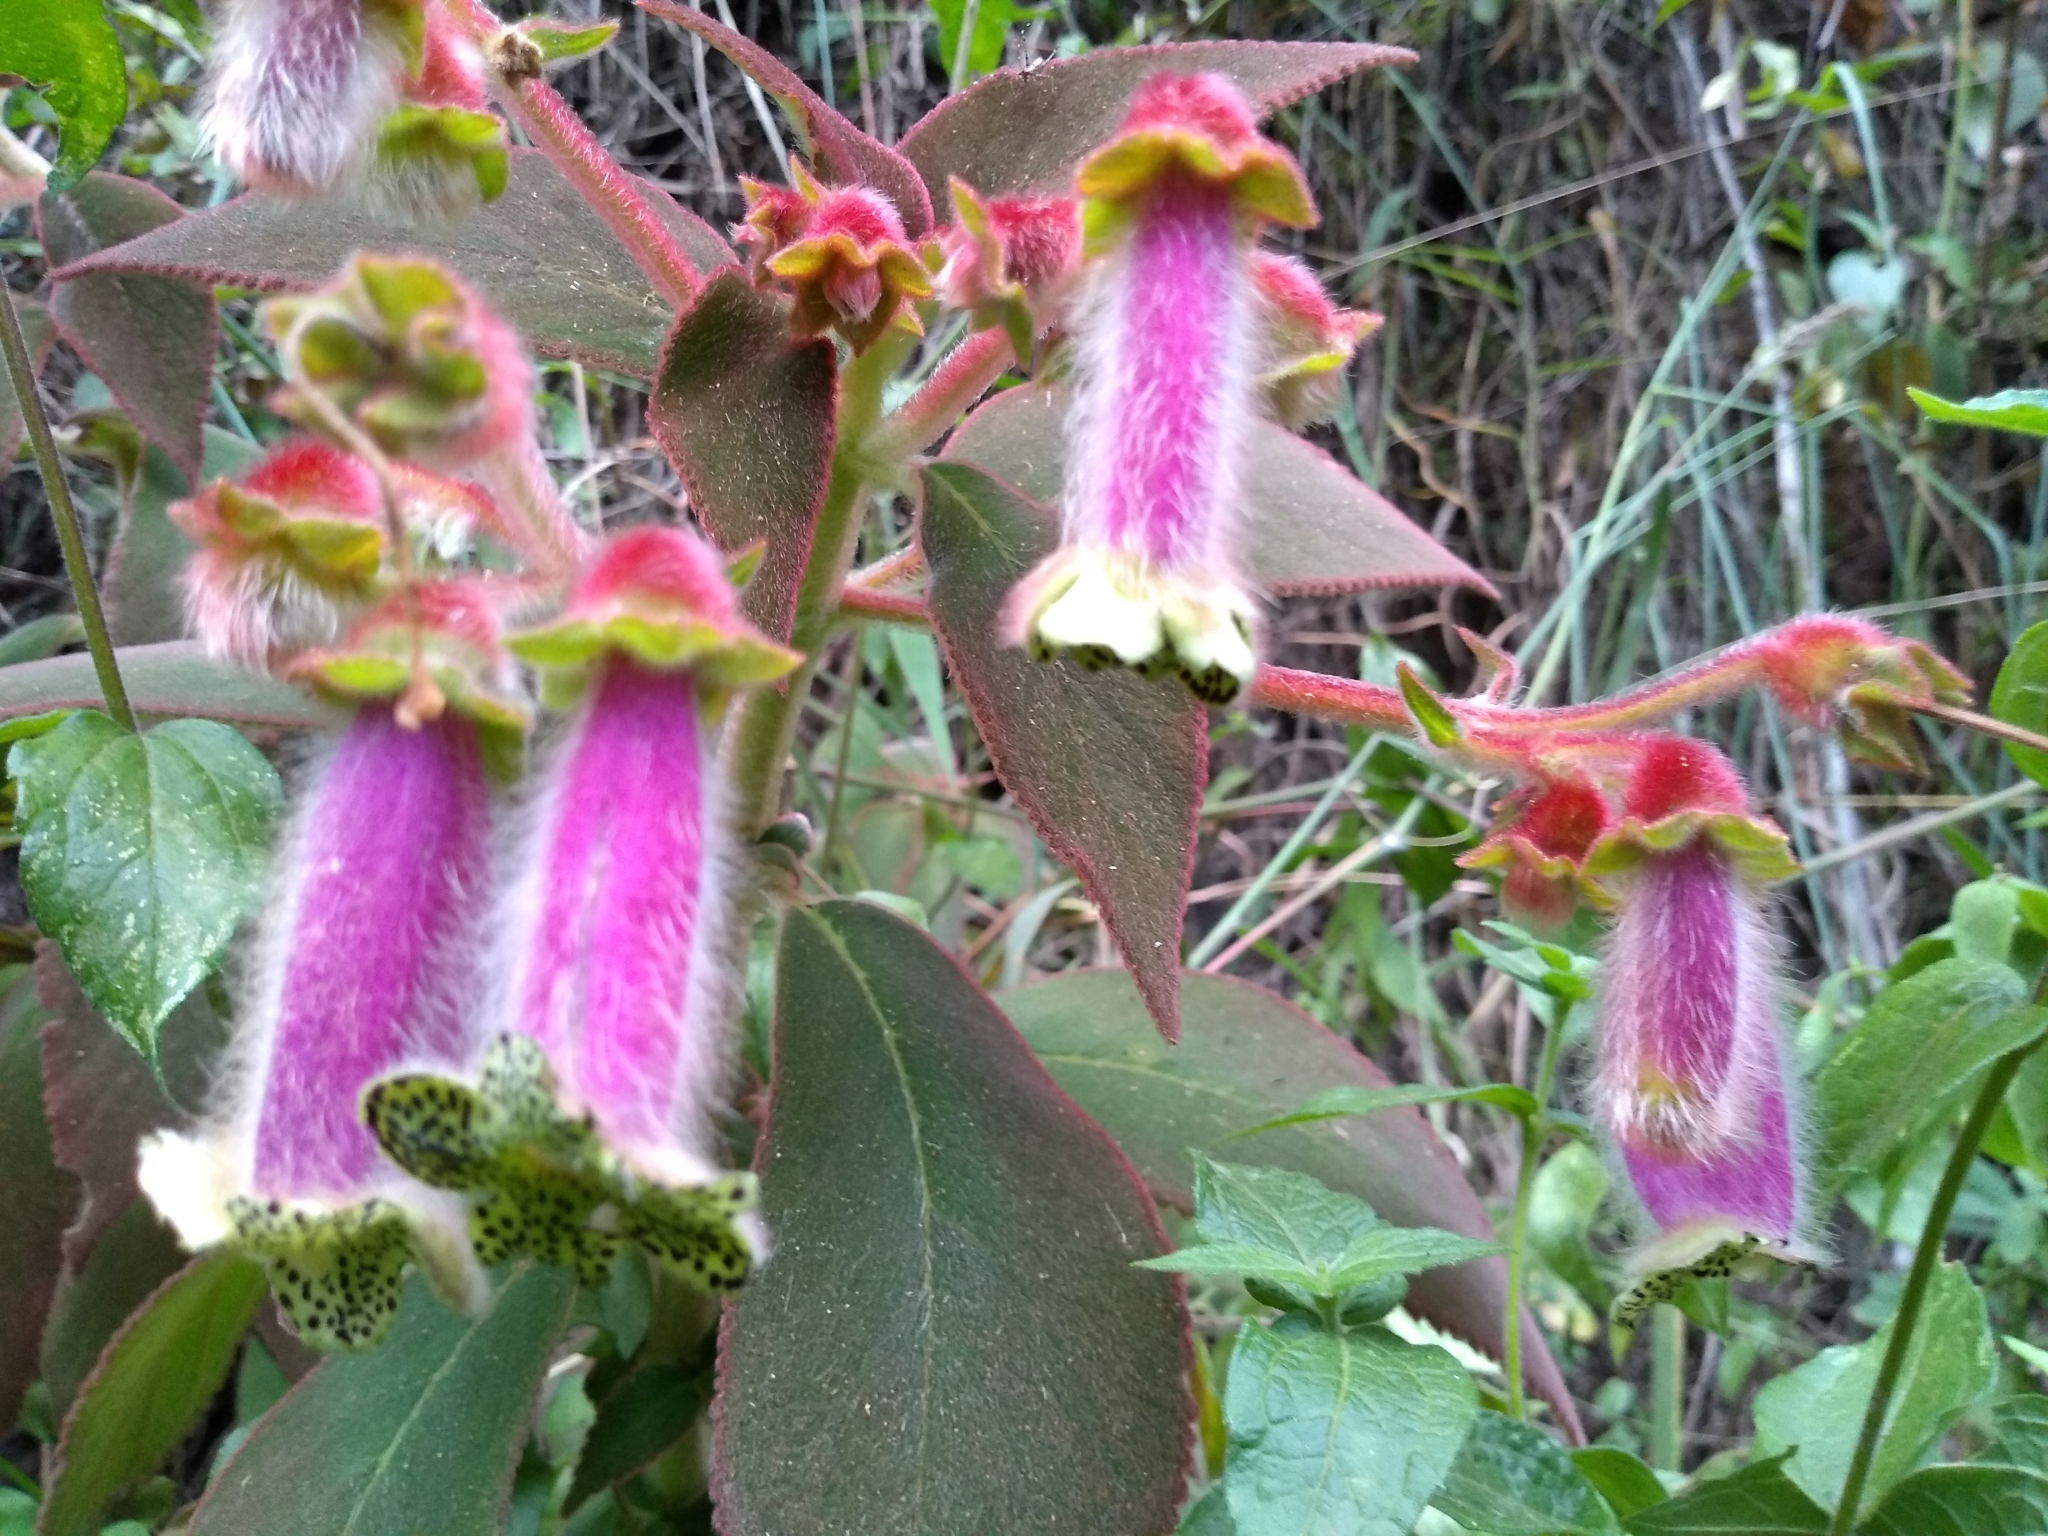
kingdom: Plantae
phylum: Tracheophyta
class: Magnoliopsida
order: Lamiales
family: Gesneriaceae
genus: Kohleria
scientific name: Kohleria warszewiczii
